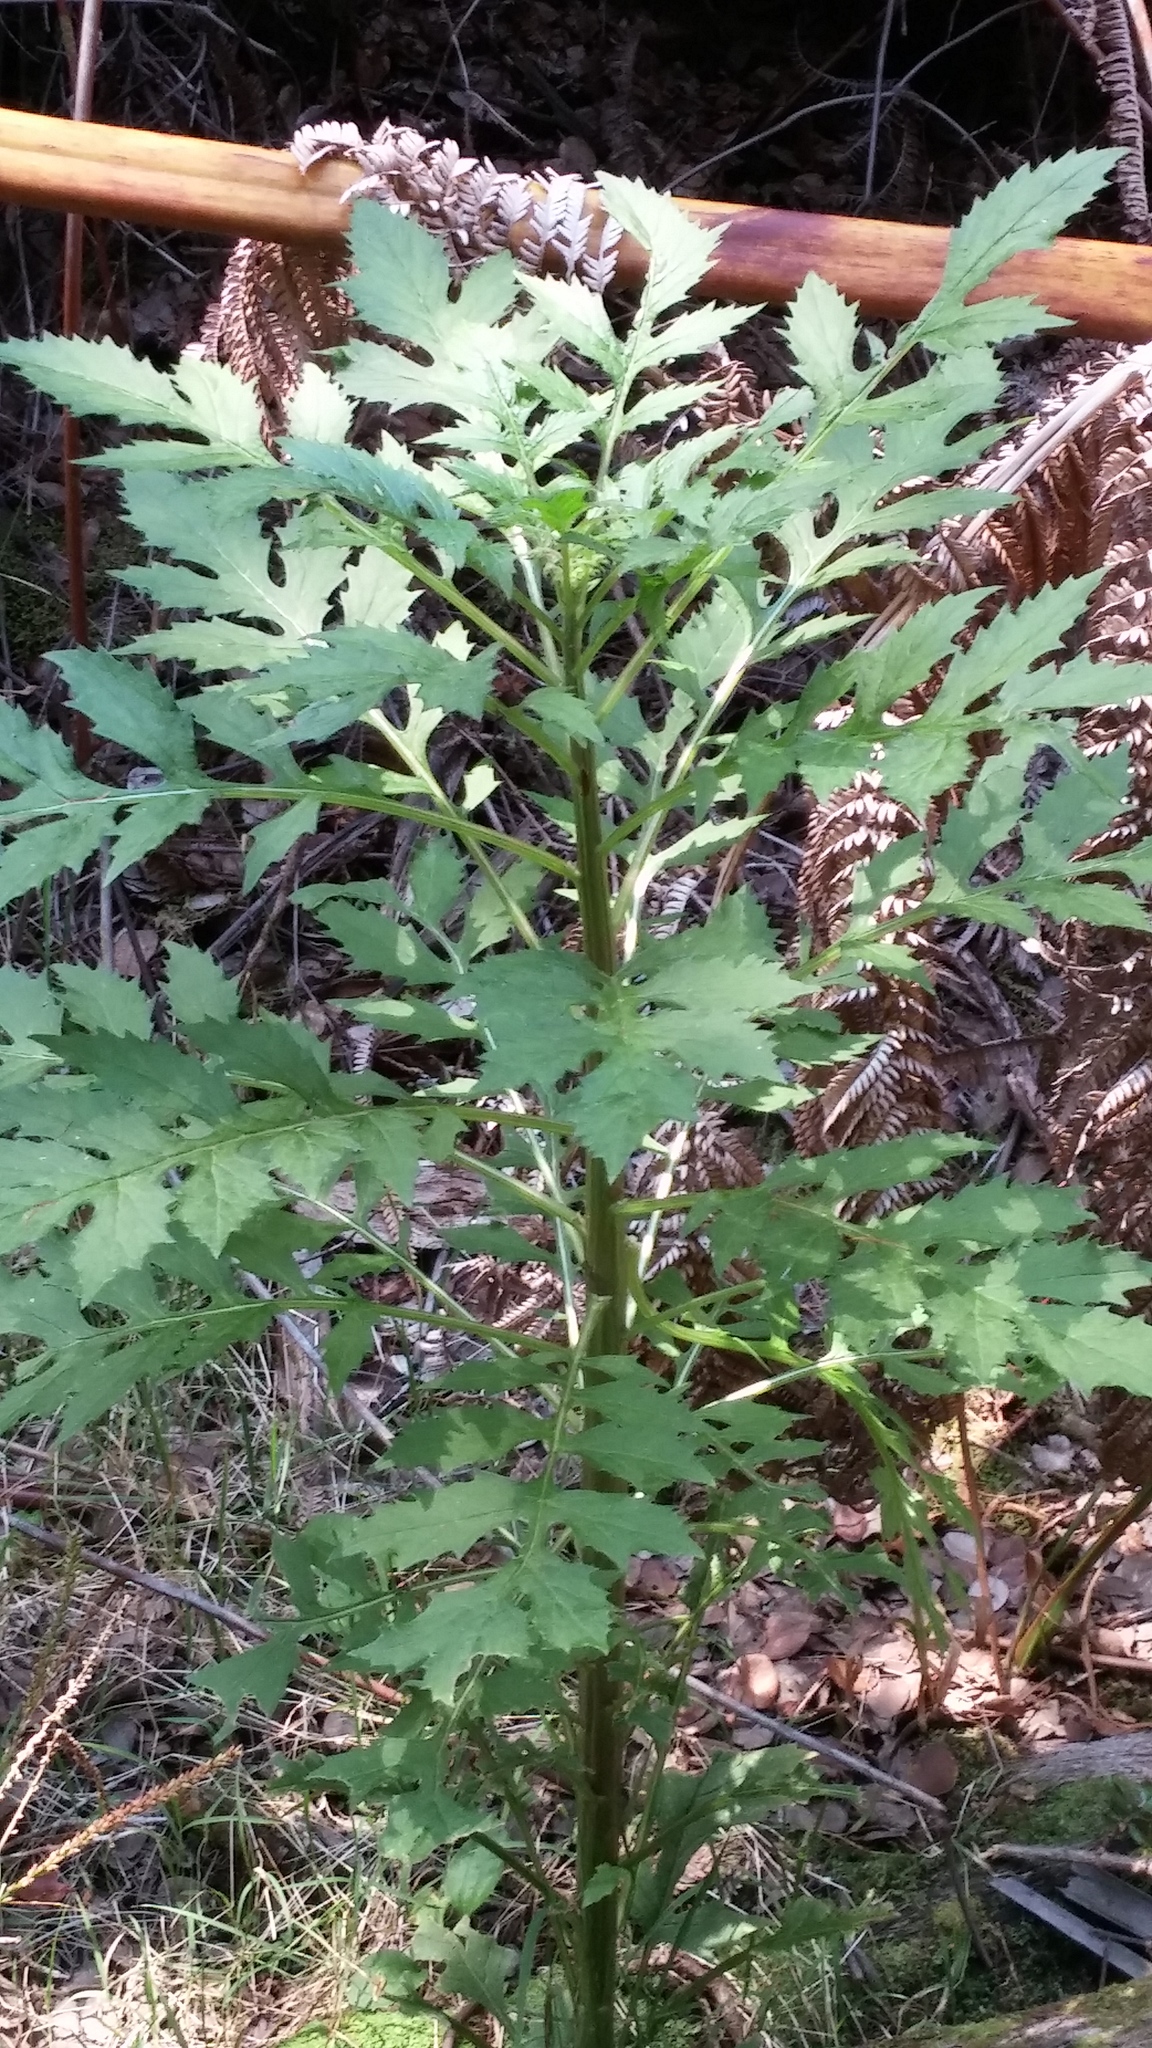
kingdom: Plantae
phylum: Tracheophyta
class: Magnoliopsida
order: Asterales
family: Asteraceae
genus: Erechtites
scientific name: Erechtites valerianifolius
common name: Tropical burnweed
